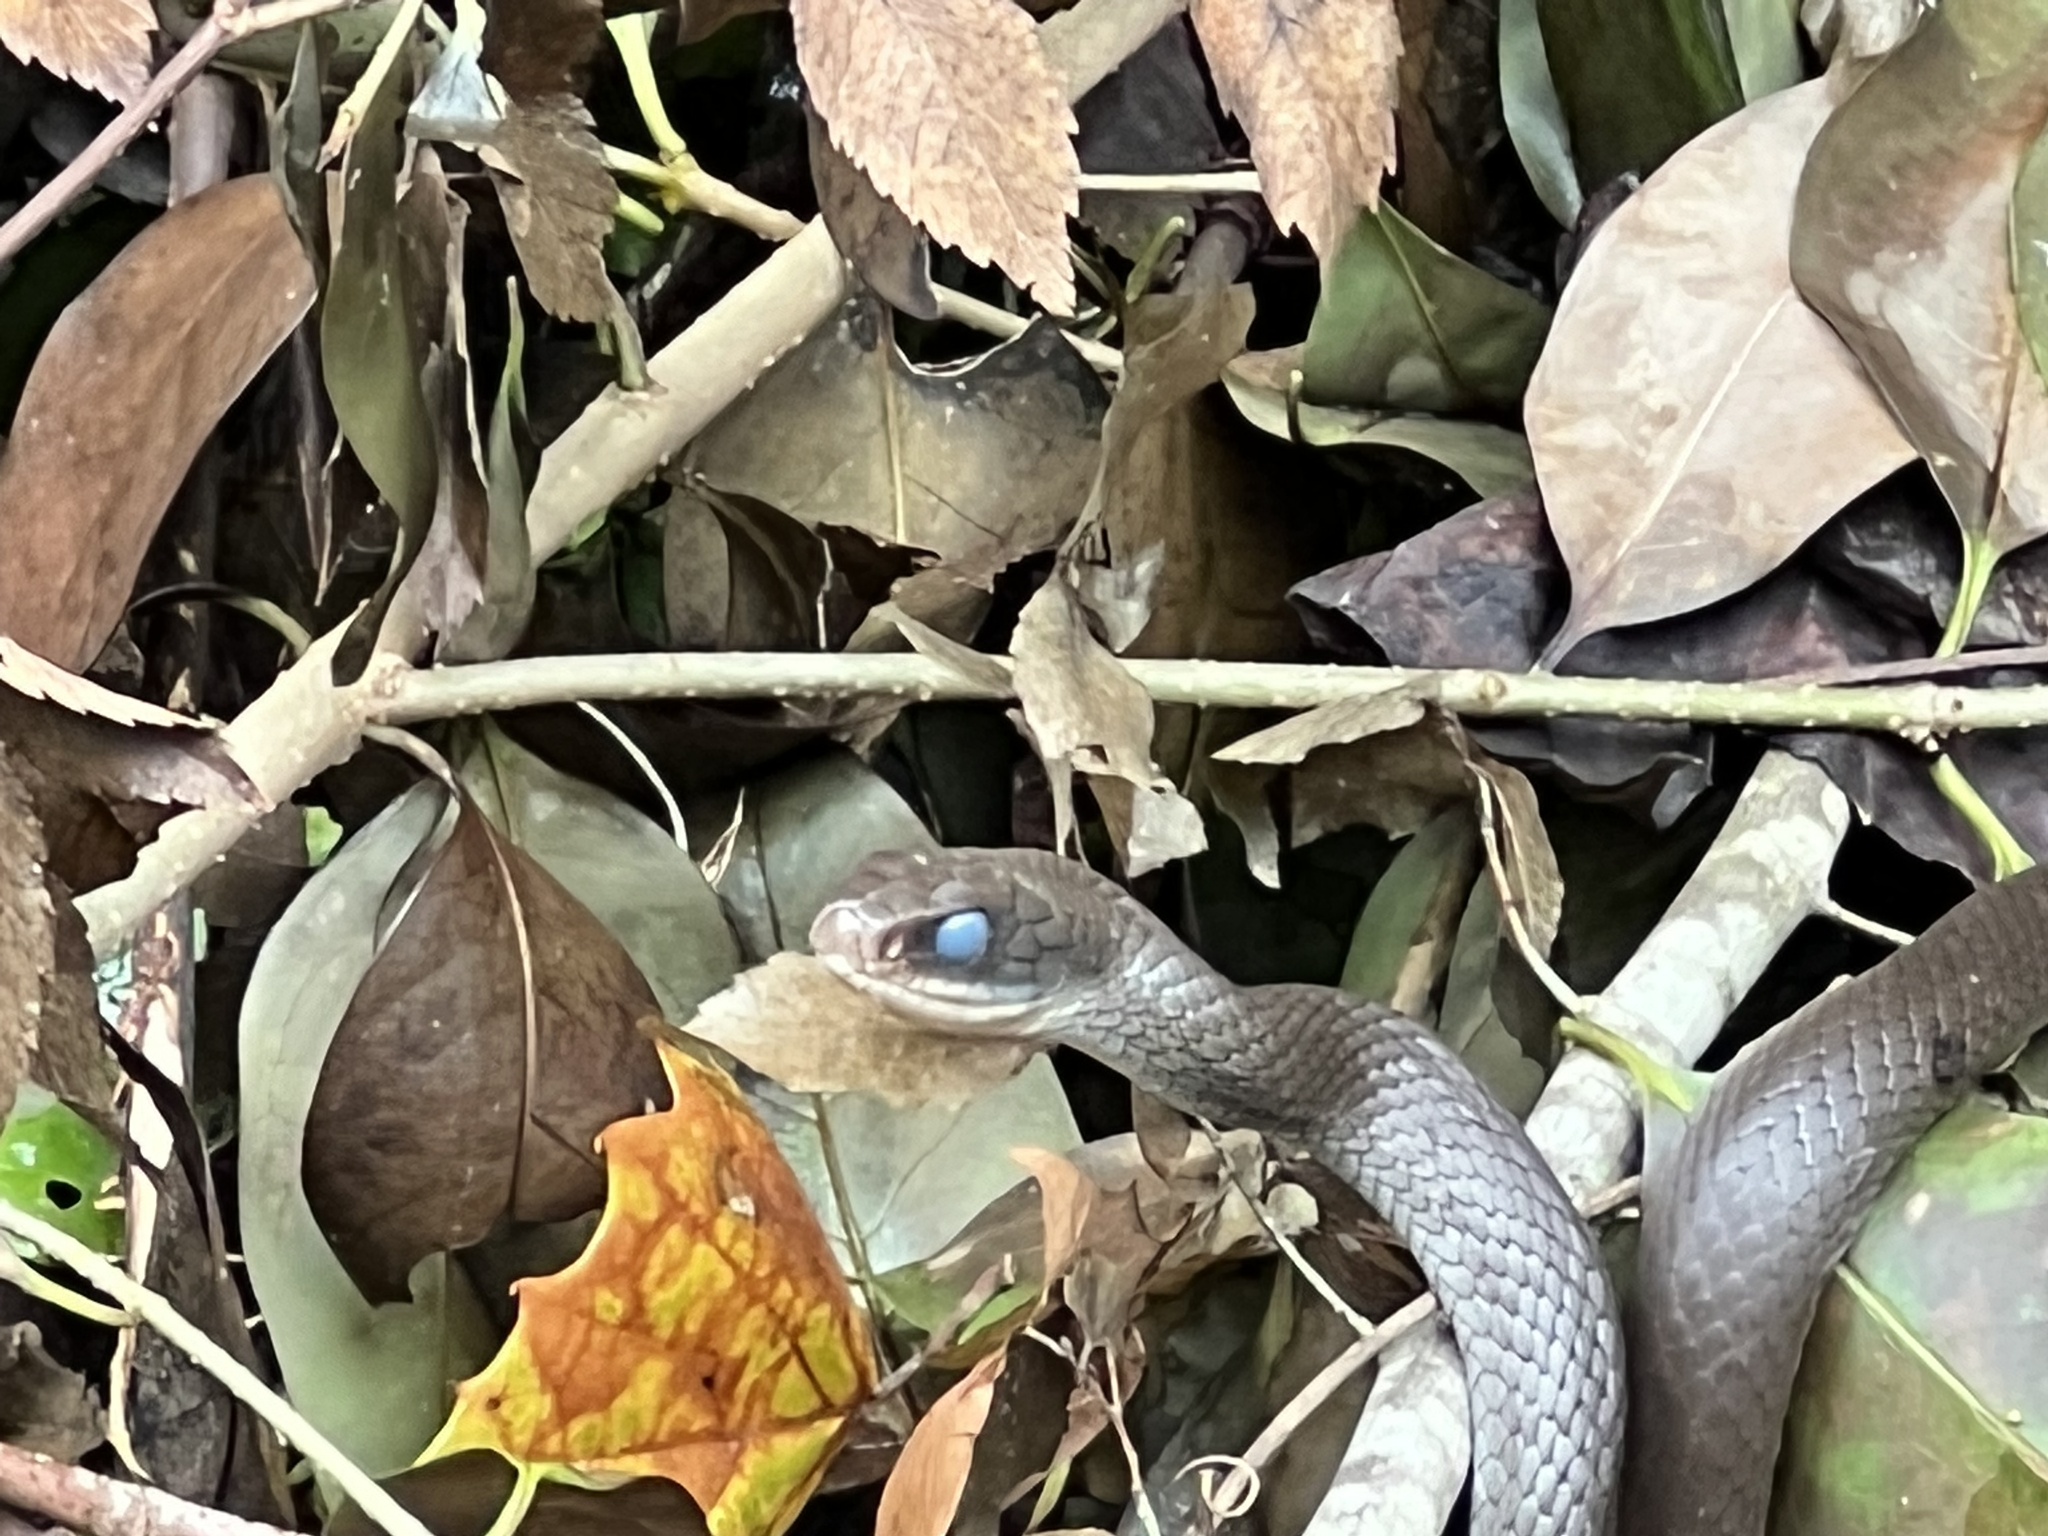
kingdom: Animalia
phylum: Chordata
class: Squamata
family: Colubridae
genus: Coluber
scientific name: Coluber constrictor
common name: Eastern racer
